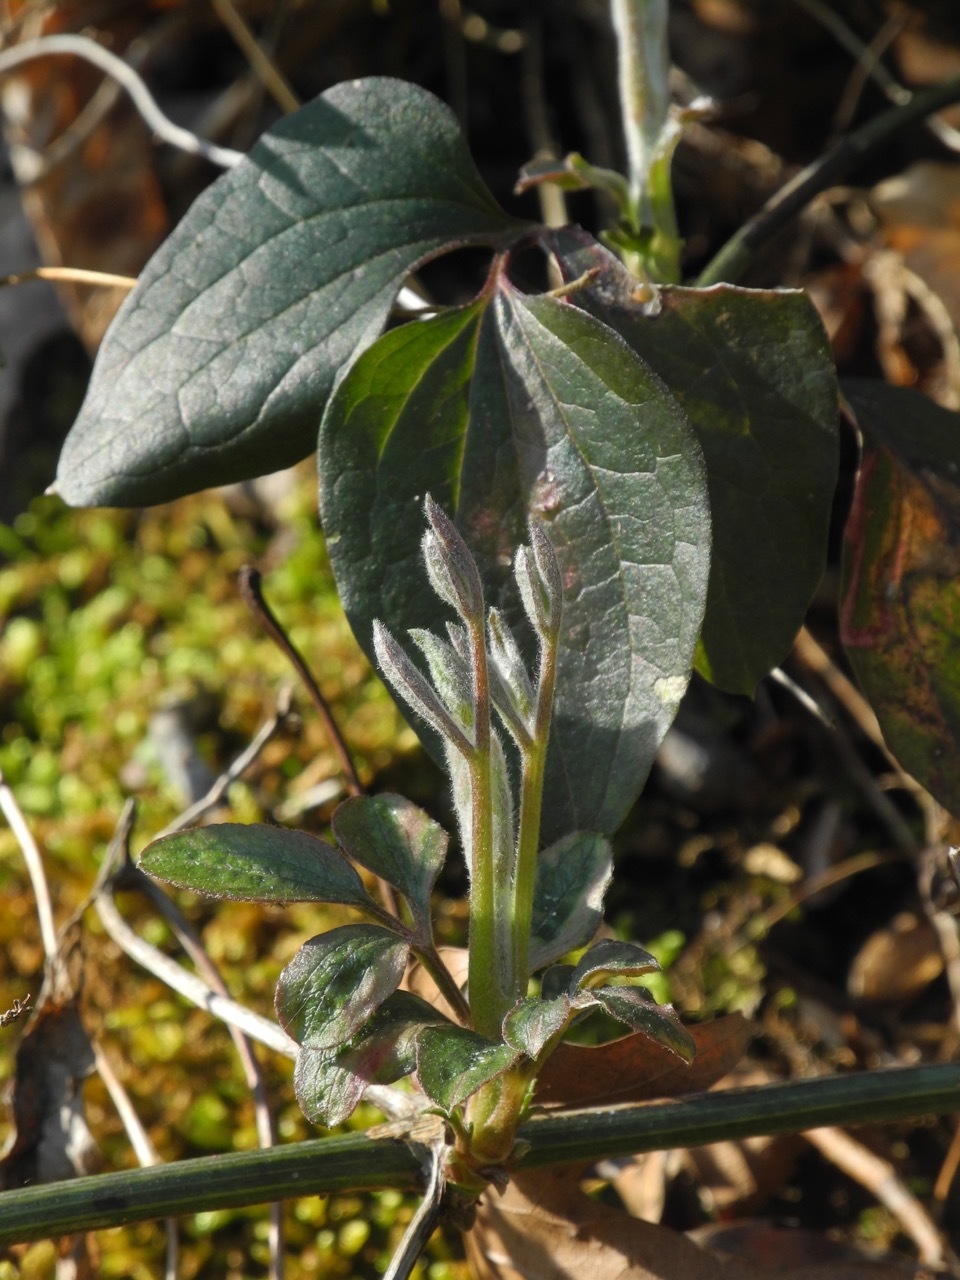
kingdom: Plantae
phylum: Tracheophyta
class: Magnoliopsida
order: Ranunculales
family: Ranunculaceae
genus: Clematis
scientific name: Clematis terniflora
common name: Sweet autumn clematis
